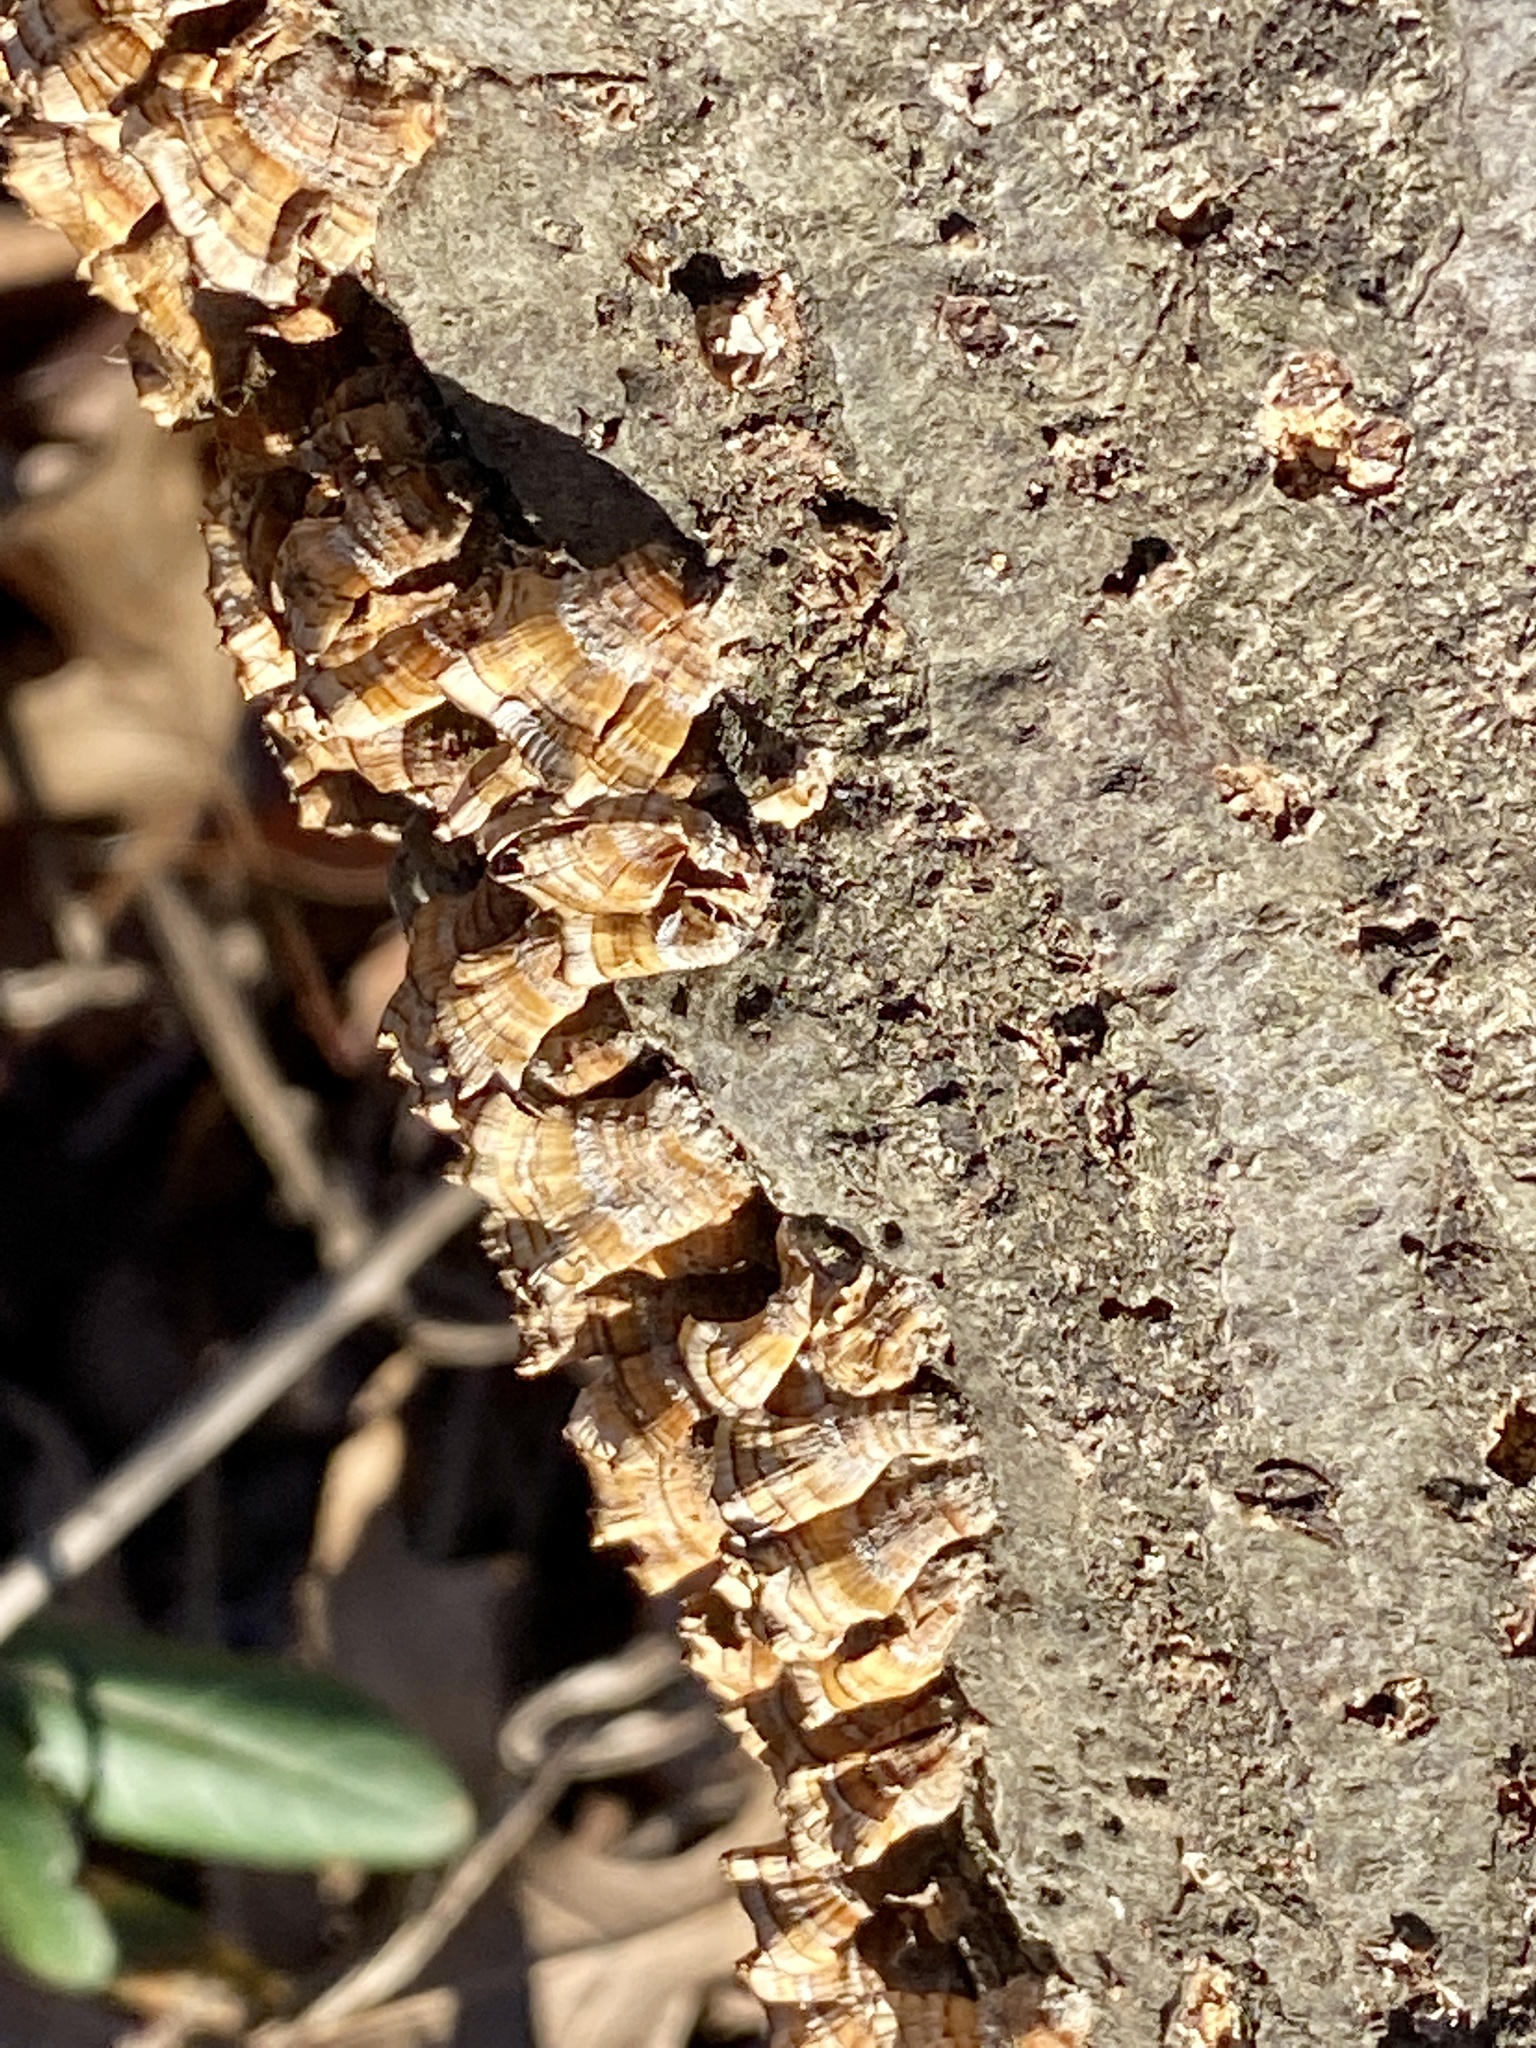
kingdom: Fungi
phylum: Basidiomycota
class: Agaricomycetes
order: Russulales
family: Stereaceae
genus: Stereum
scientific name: Stereum complicatum
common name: Crowded parchment
